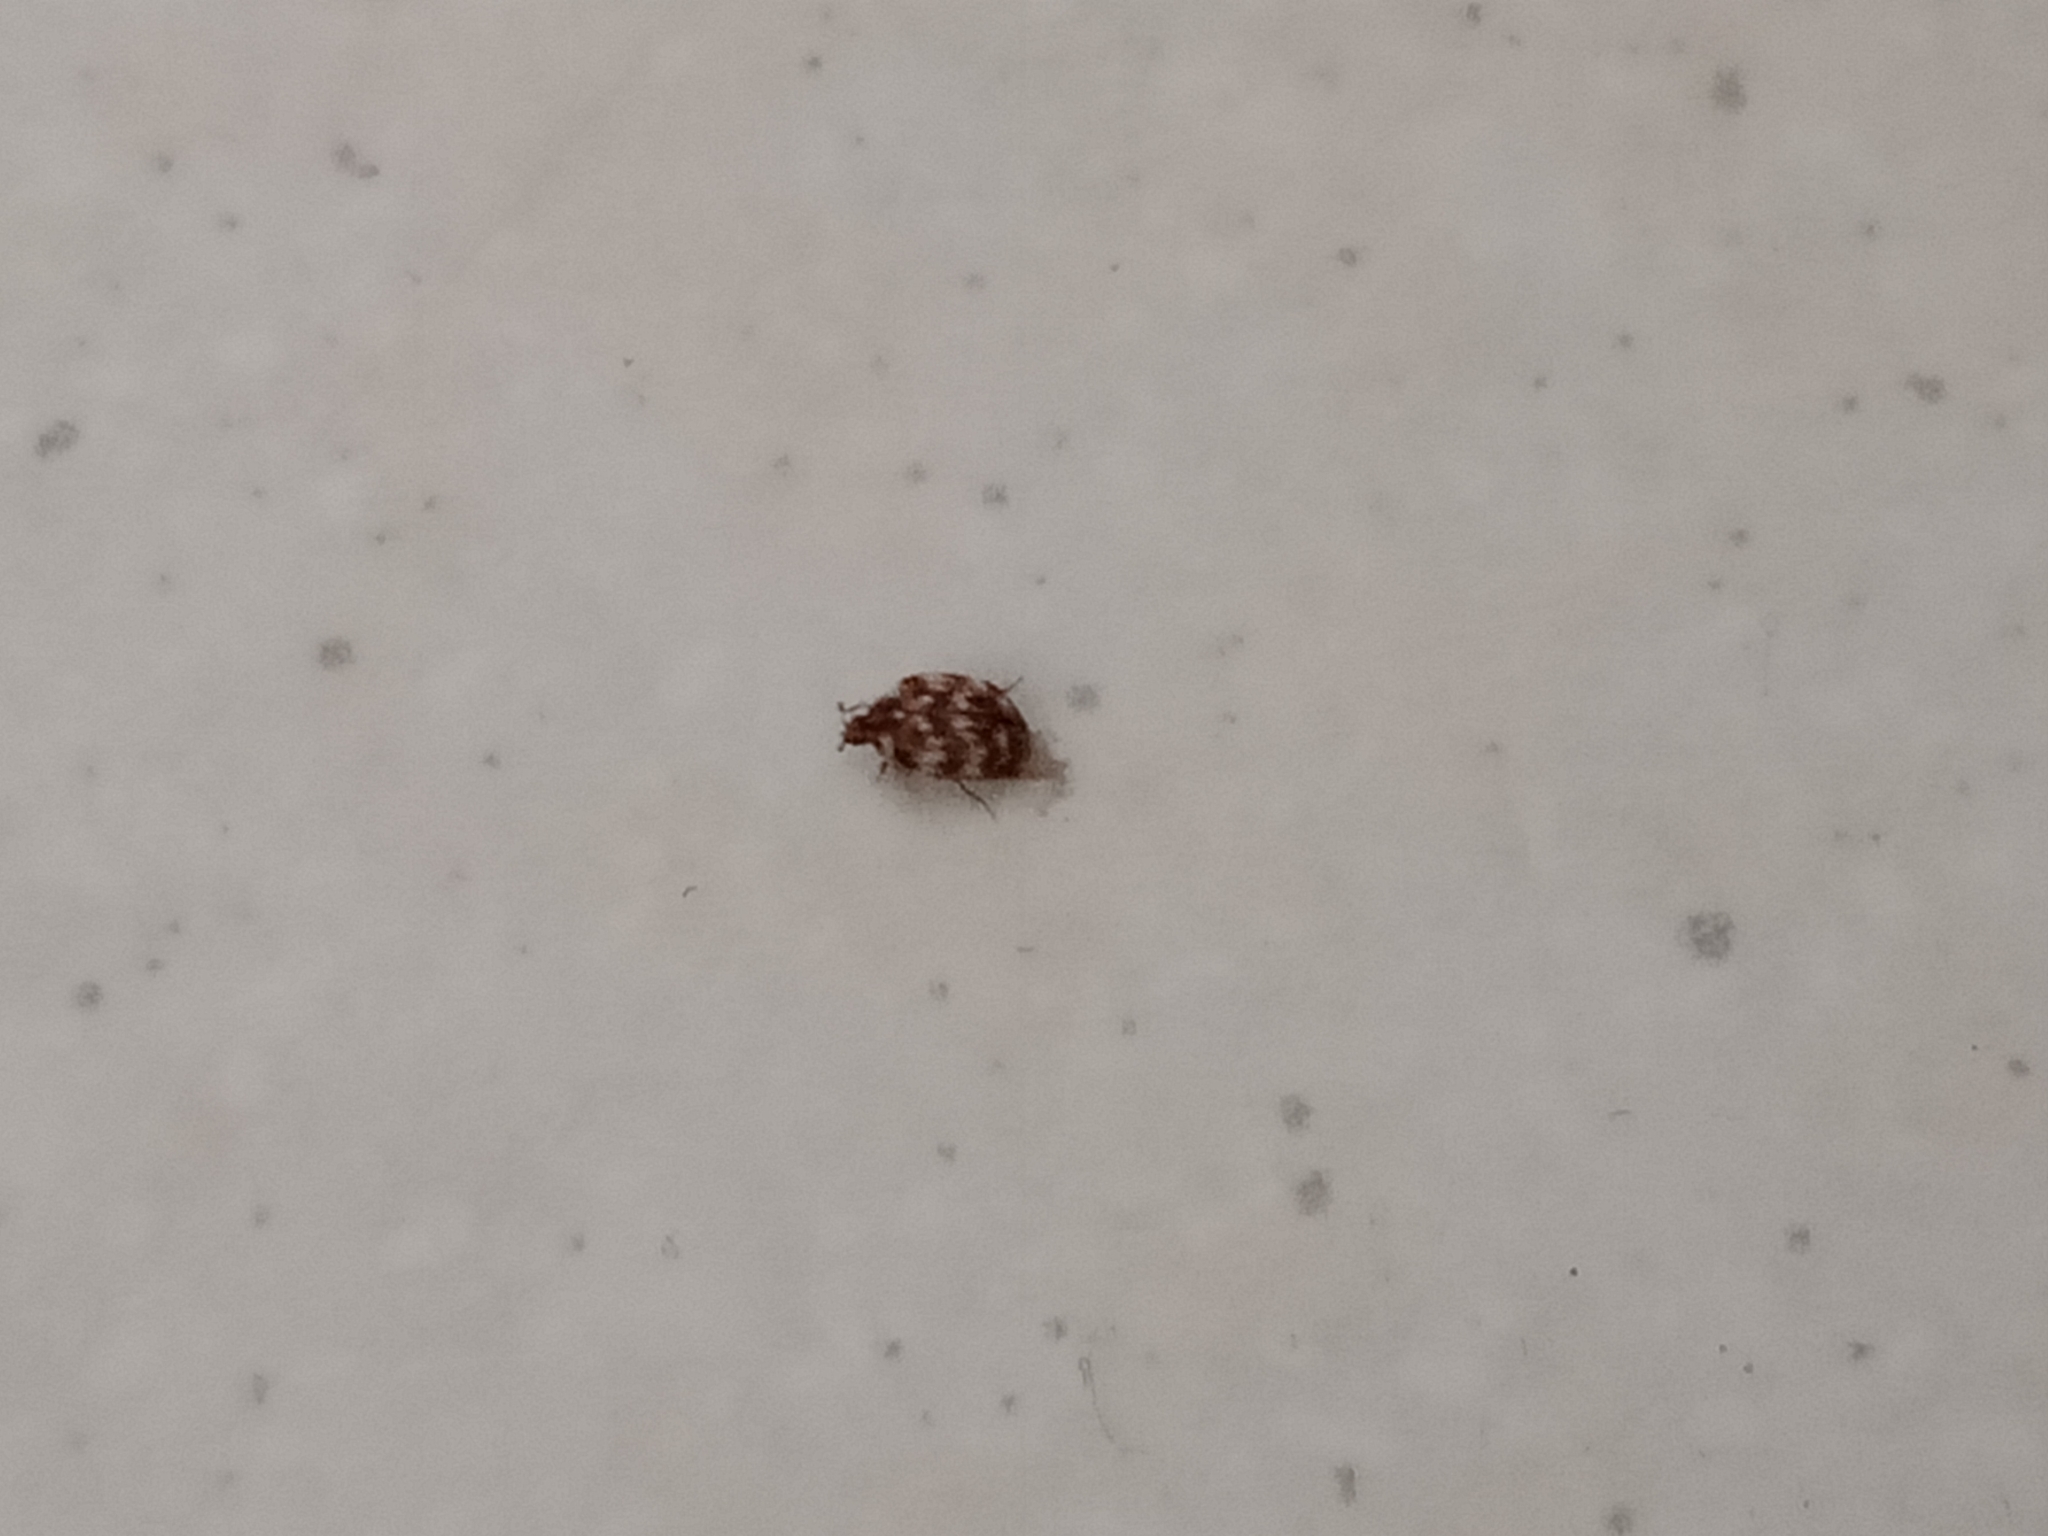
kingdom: Animalia
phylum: Arthropoda
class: Insecta
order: Coleoptera
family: Dermestidae
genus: Anthrenus
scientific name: Anthrenus verbasci
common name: Varied carpet beetle
